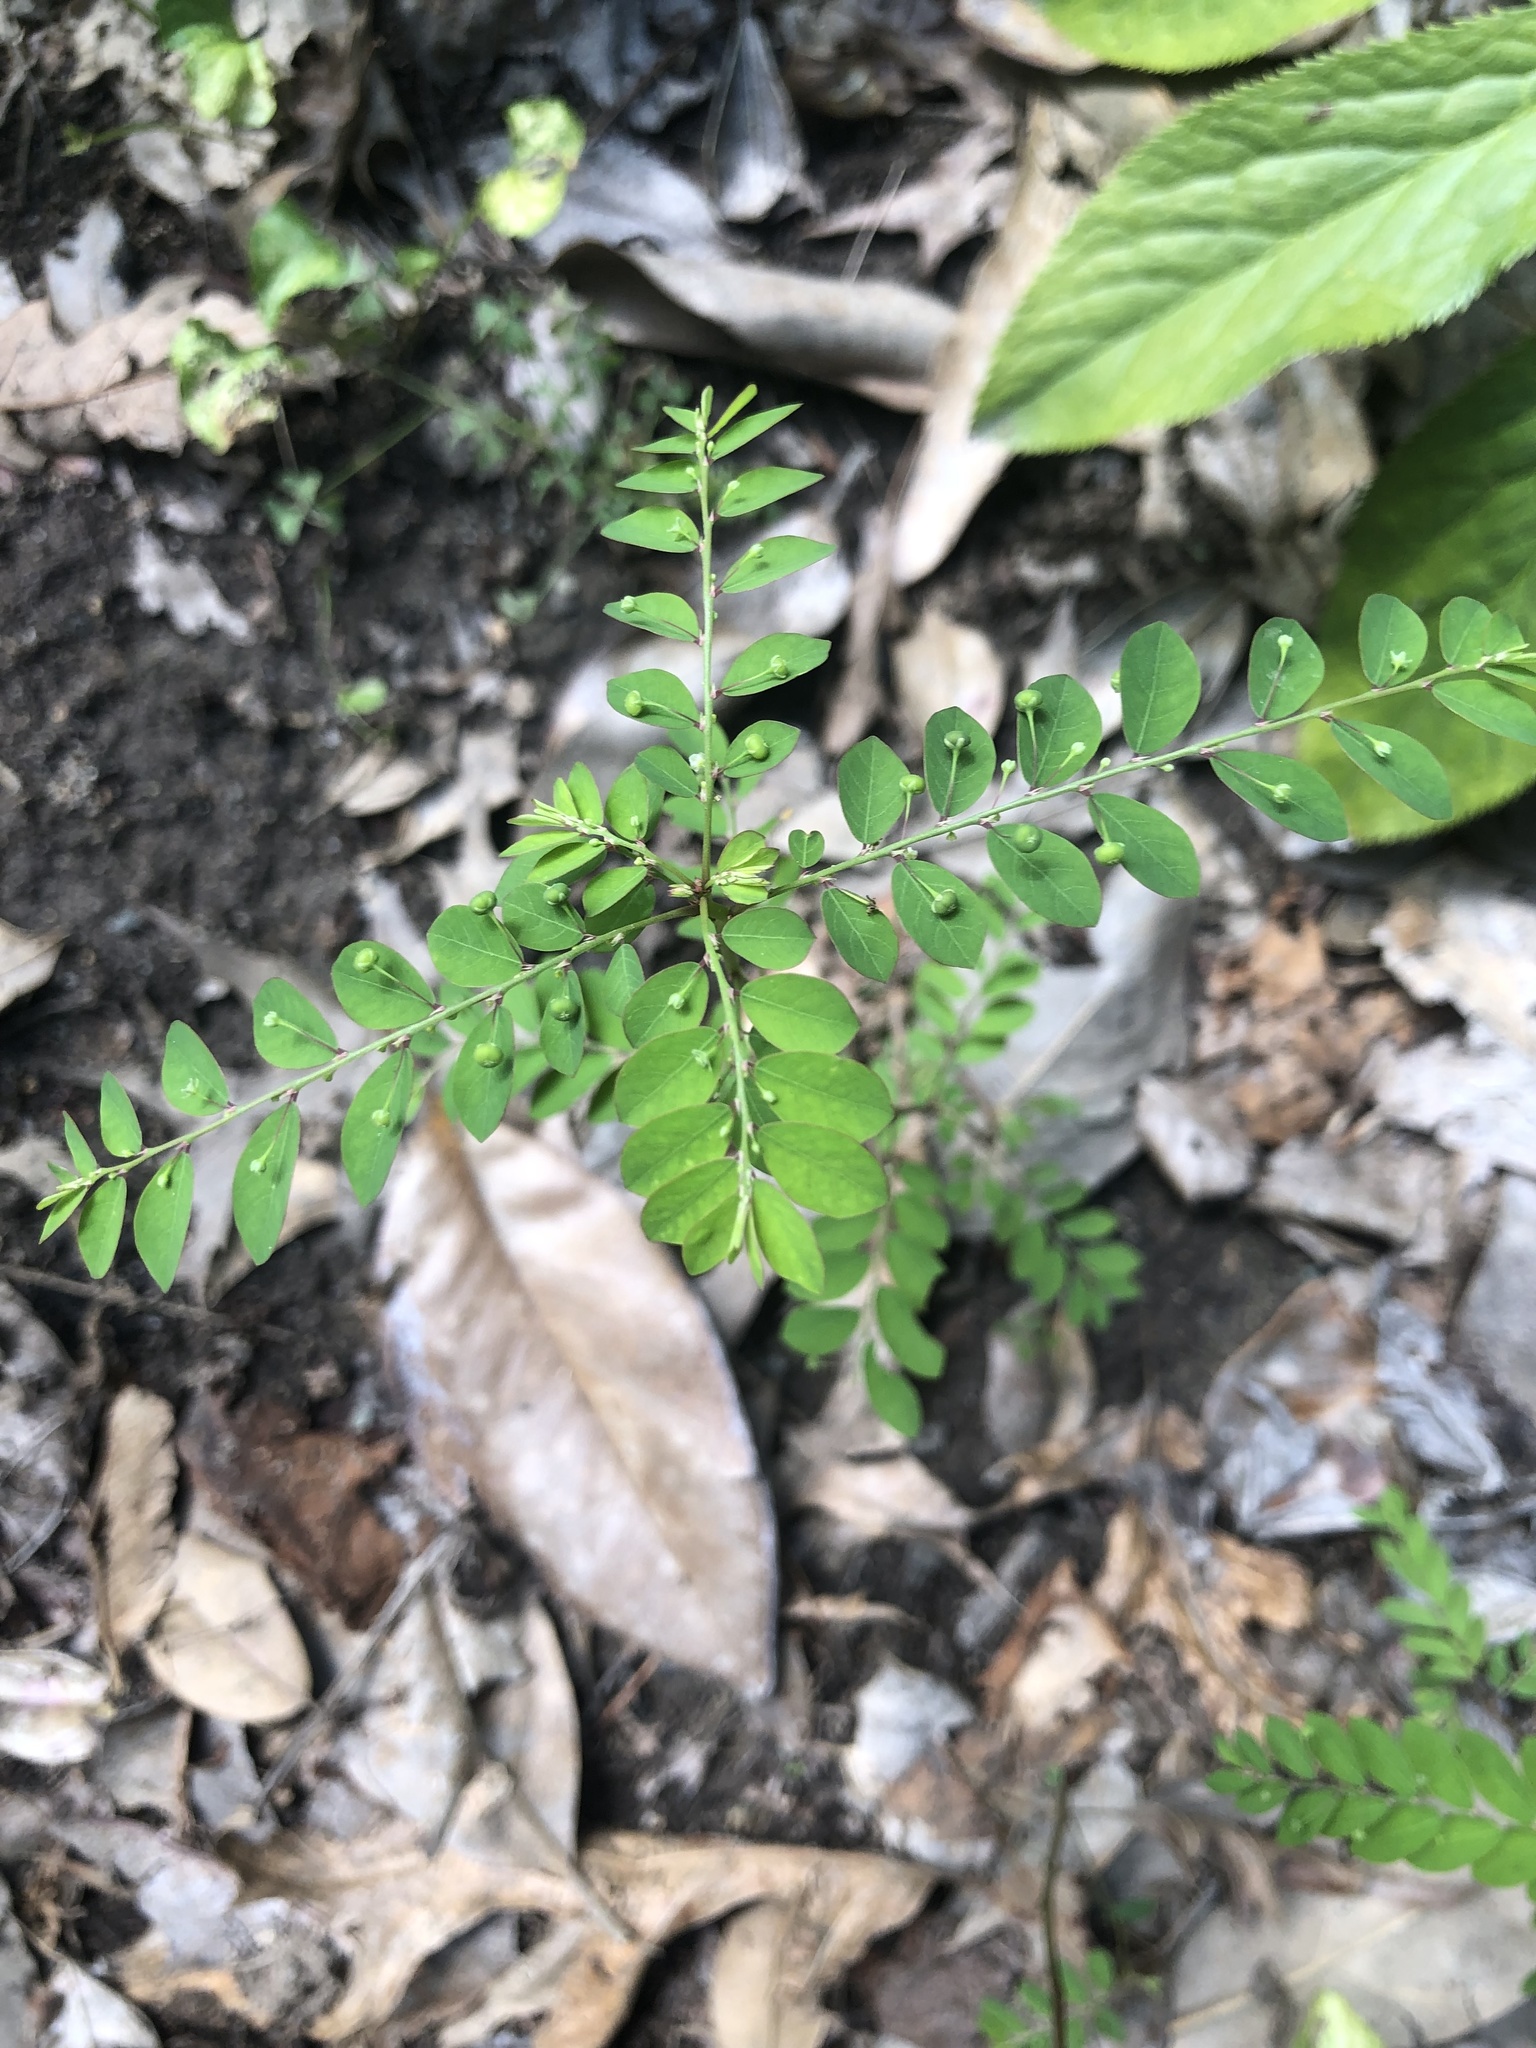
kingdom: Plantae
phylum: Tracheophyta
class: Magnoliopsida
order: Malpighiales
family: Phyllanthaceae
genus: Phyllanthus
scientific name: Phyllanthus tenellus
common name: Mascarene island leaf-flower
